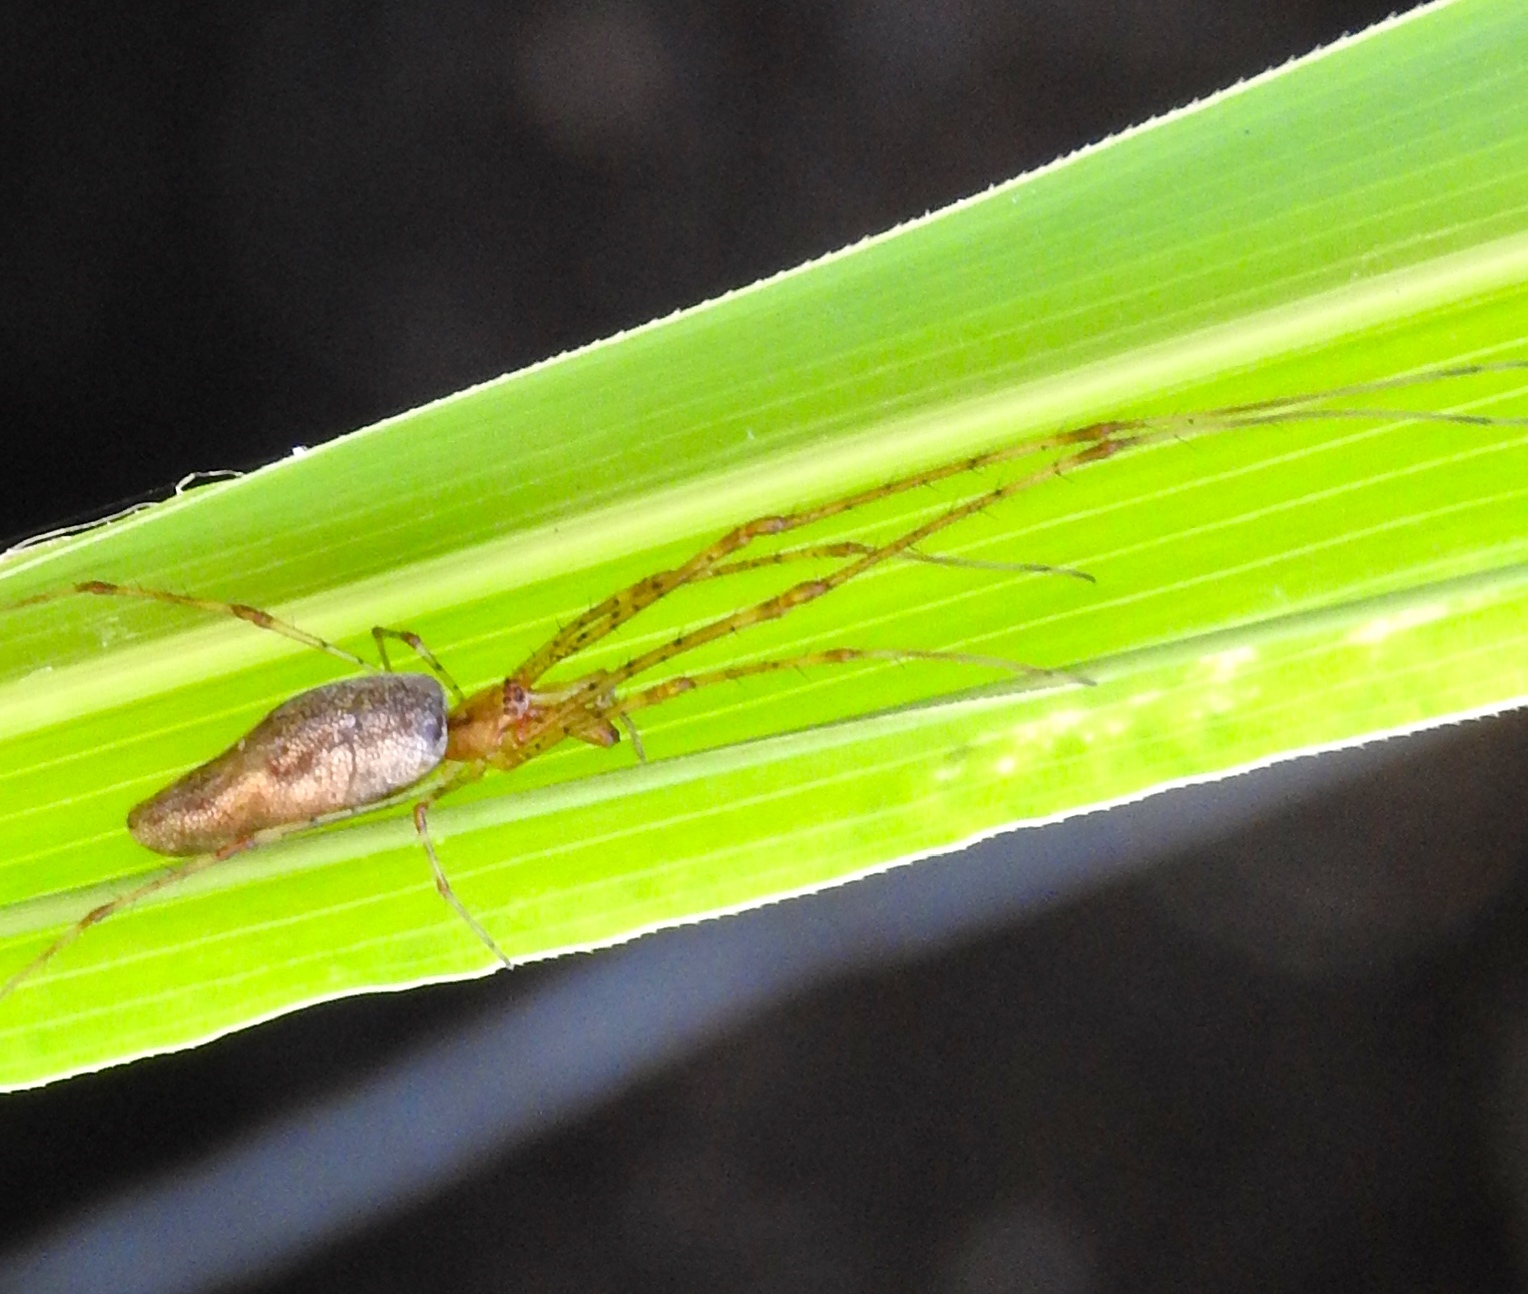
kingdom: Animalia
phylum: Arthropoda
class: Arachnida
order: Araneae
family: Tetragnathidae
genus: Tetragnatha
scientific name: Tetragnatha
